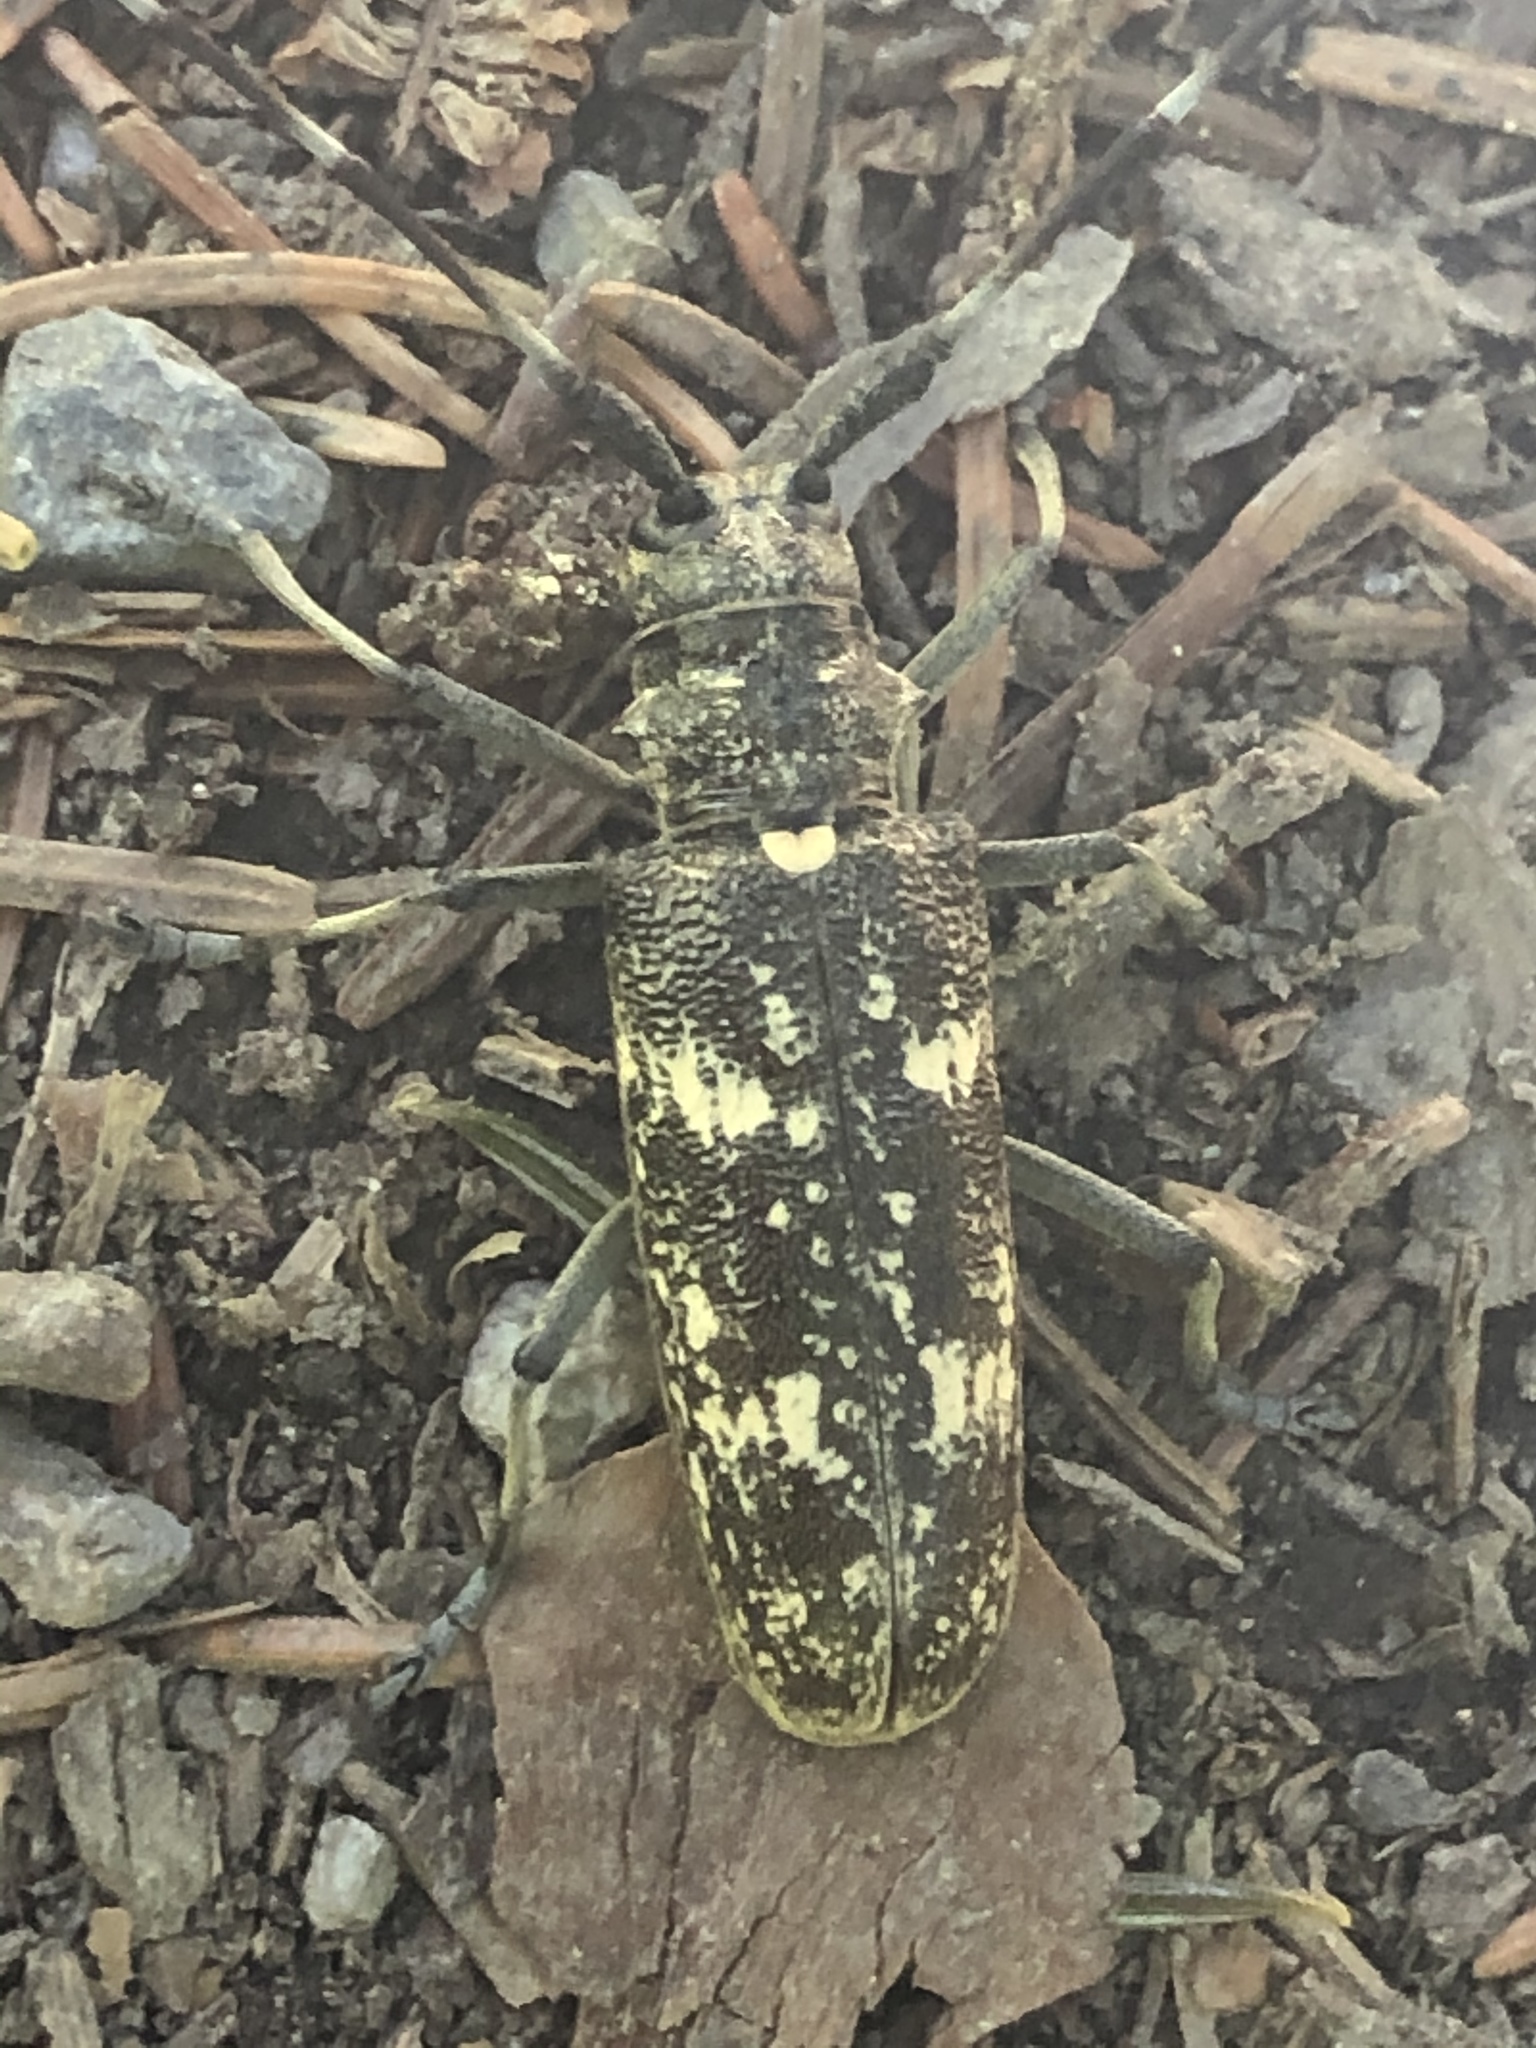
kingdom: Animalia
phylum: Arthropoda
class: Insecta
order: Coleoptera
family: Cerambycidae
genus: Monochamus
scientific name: Monochamus sartor
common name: Pine sawyer
